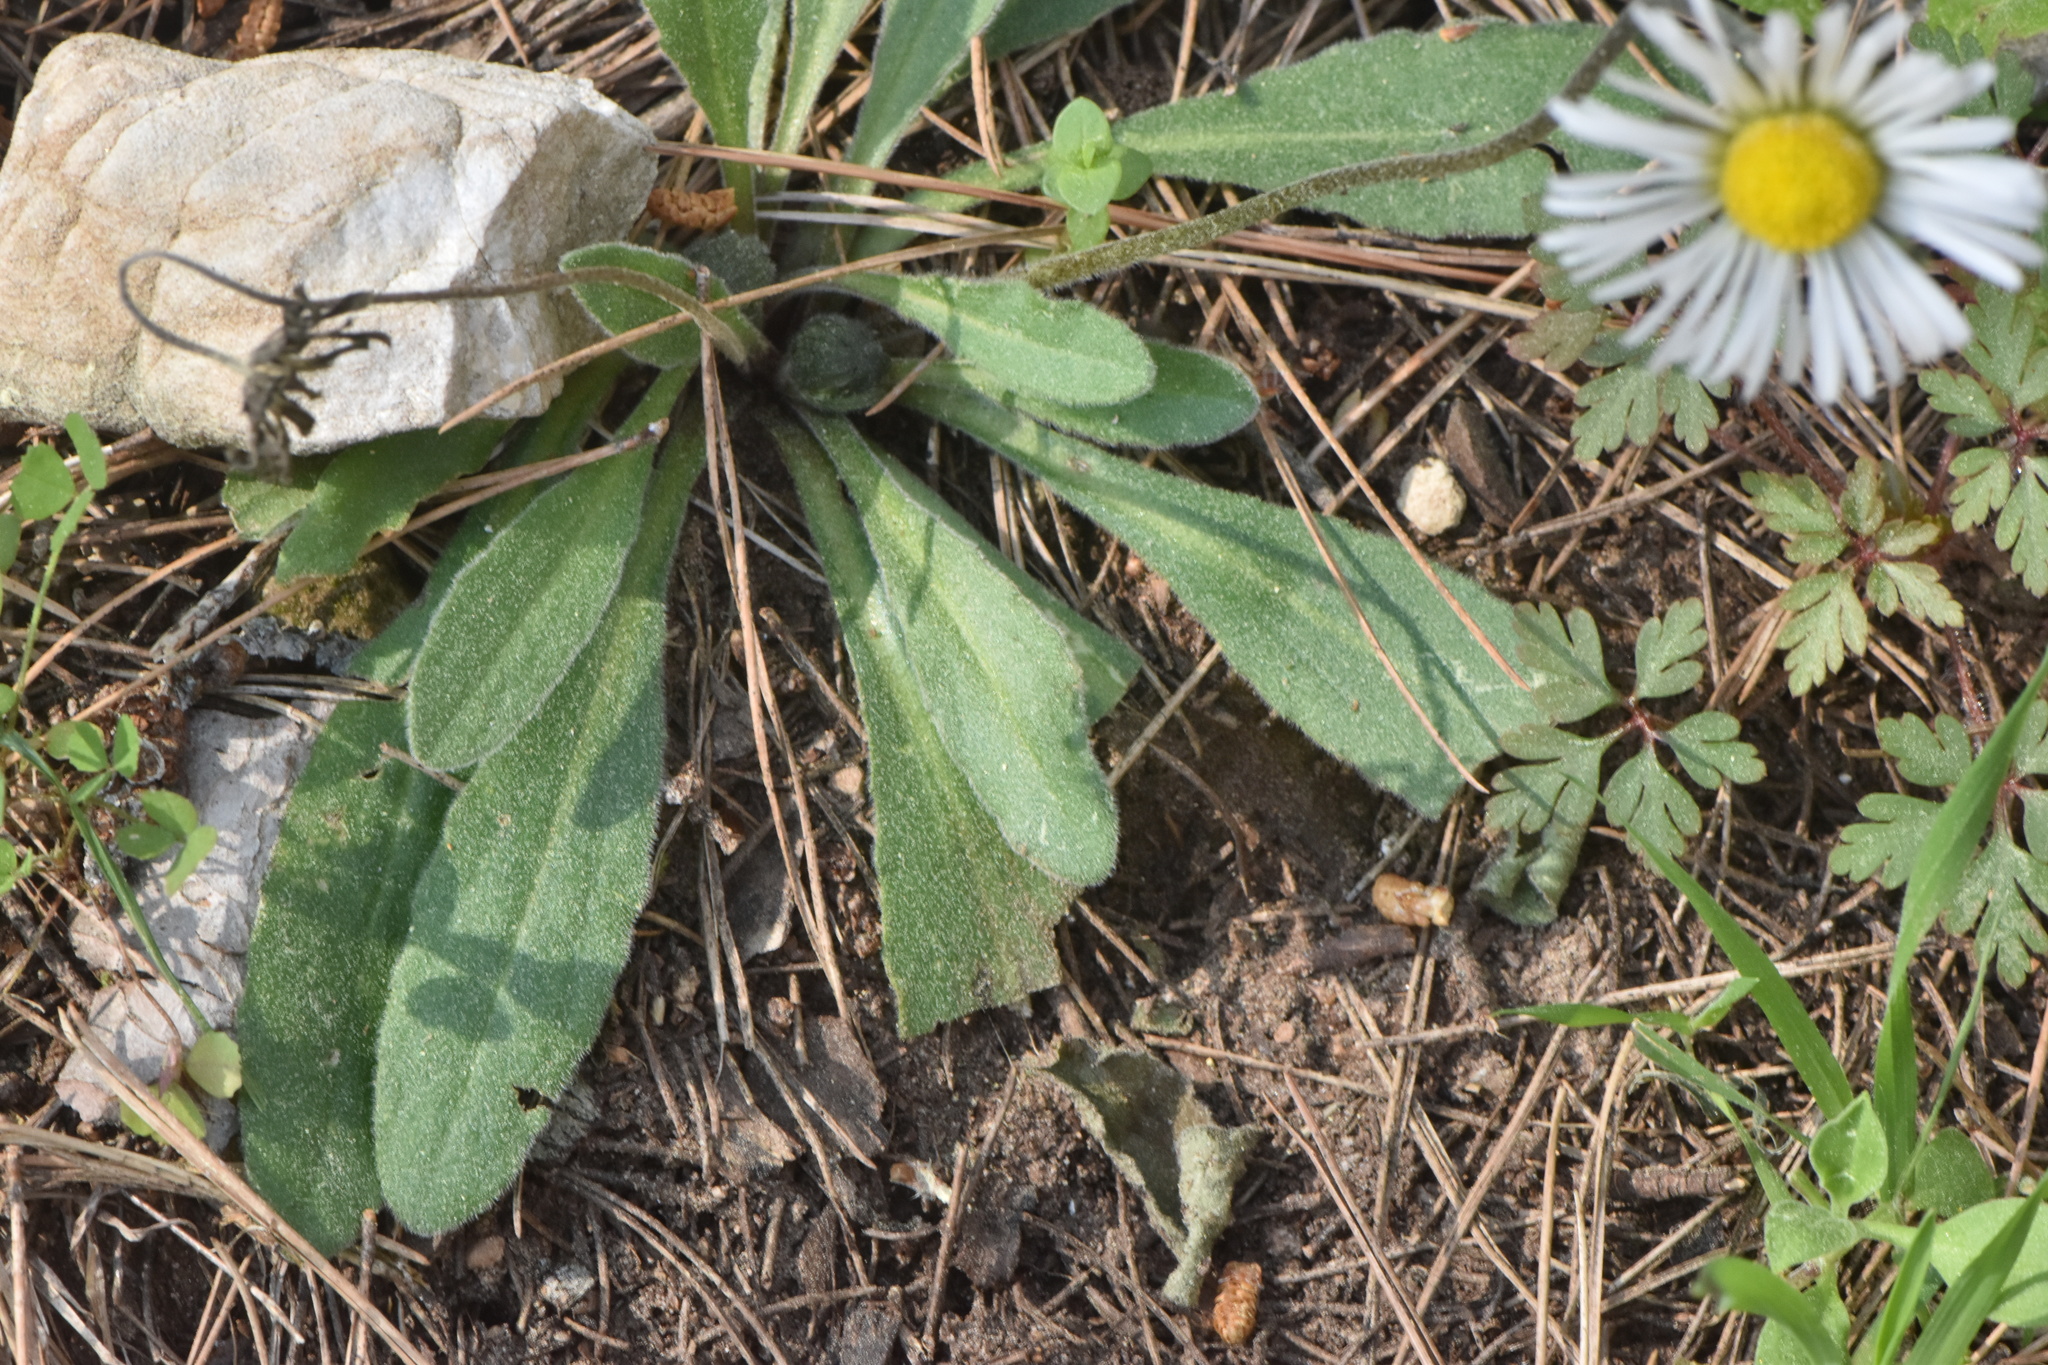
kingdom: Plantae
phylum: Tracheophyta
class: Magnoliopsida
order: Asterales
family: Asteraceae
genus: Bellis
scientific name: Bellis sylvestris
